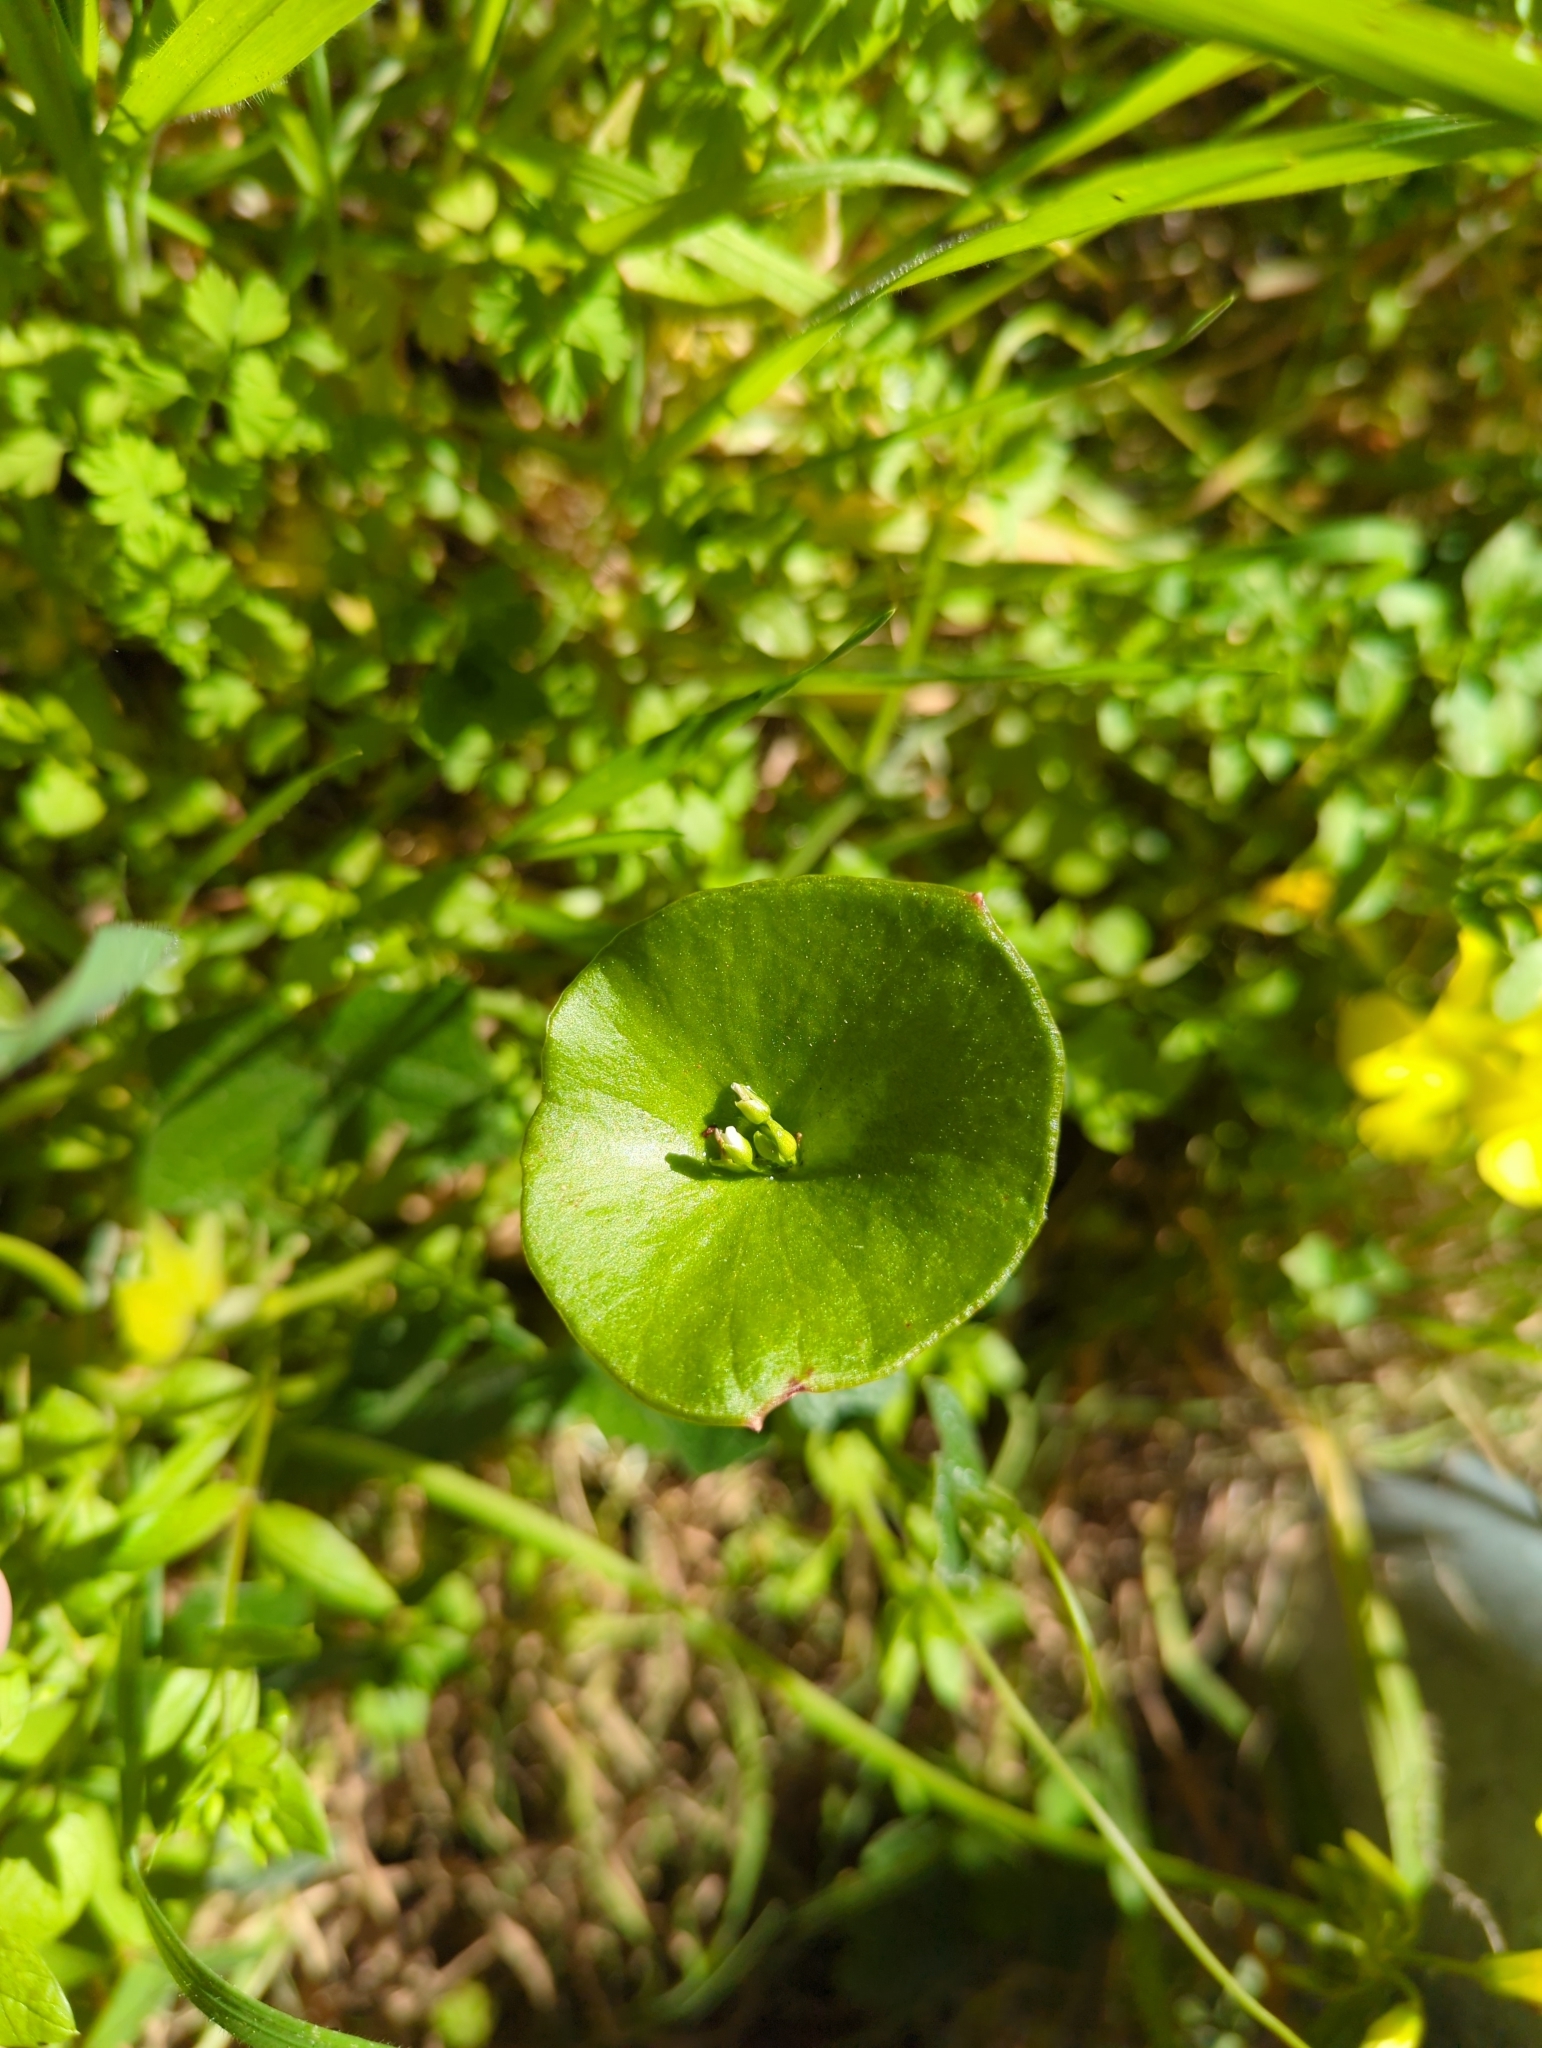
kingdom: Plantae
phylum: Tracheophyta
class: Magnoliopsida
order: Caryophyllales
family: Montiaceae
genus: Claytonia
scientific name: Claytonia perfoliata
